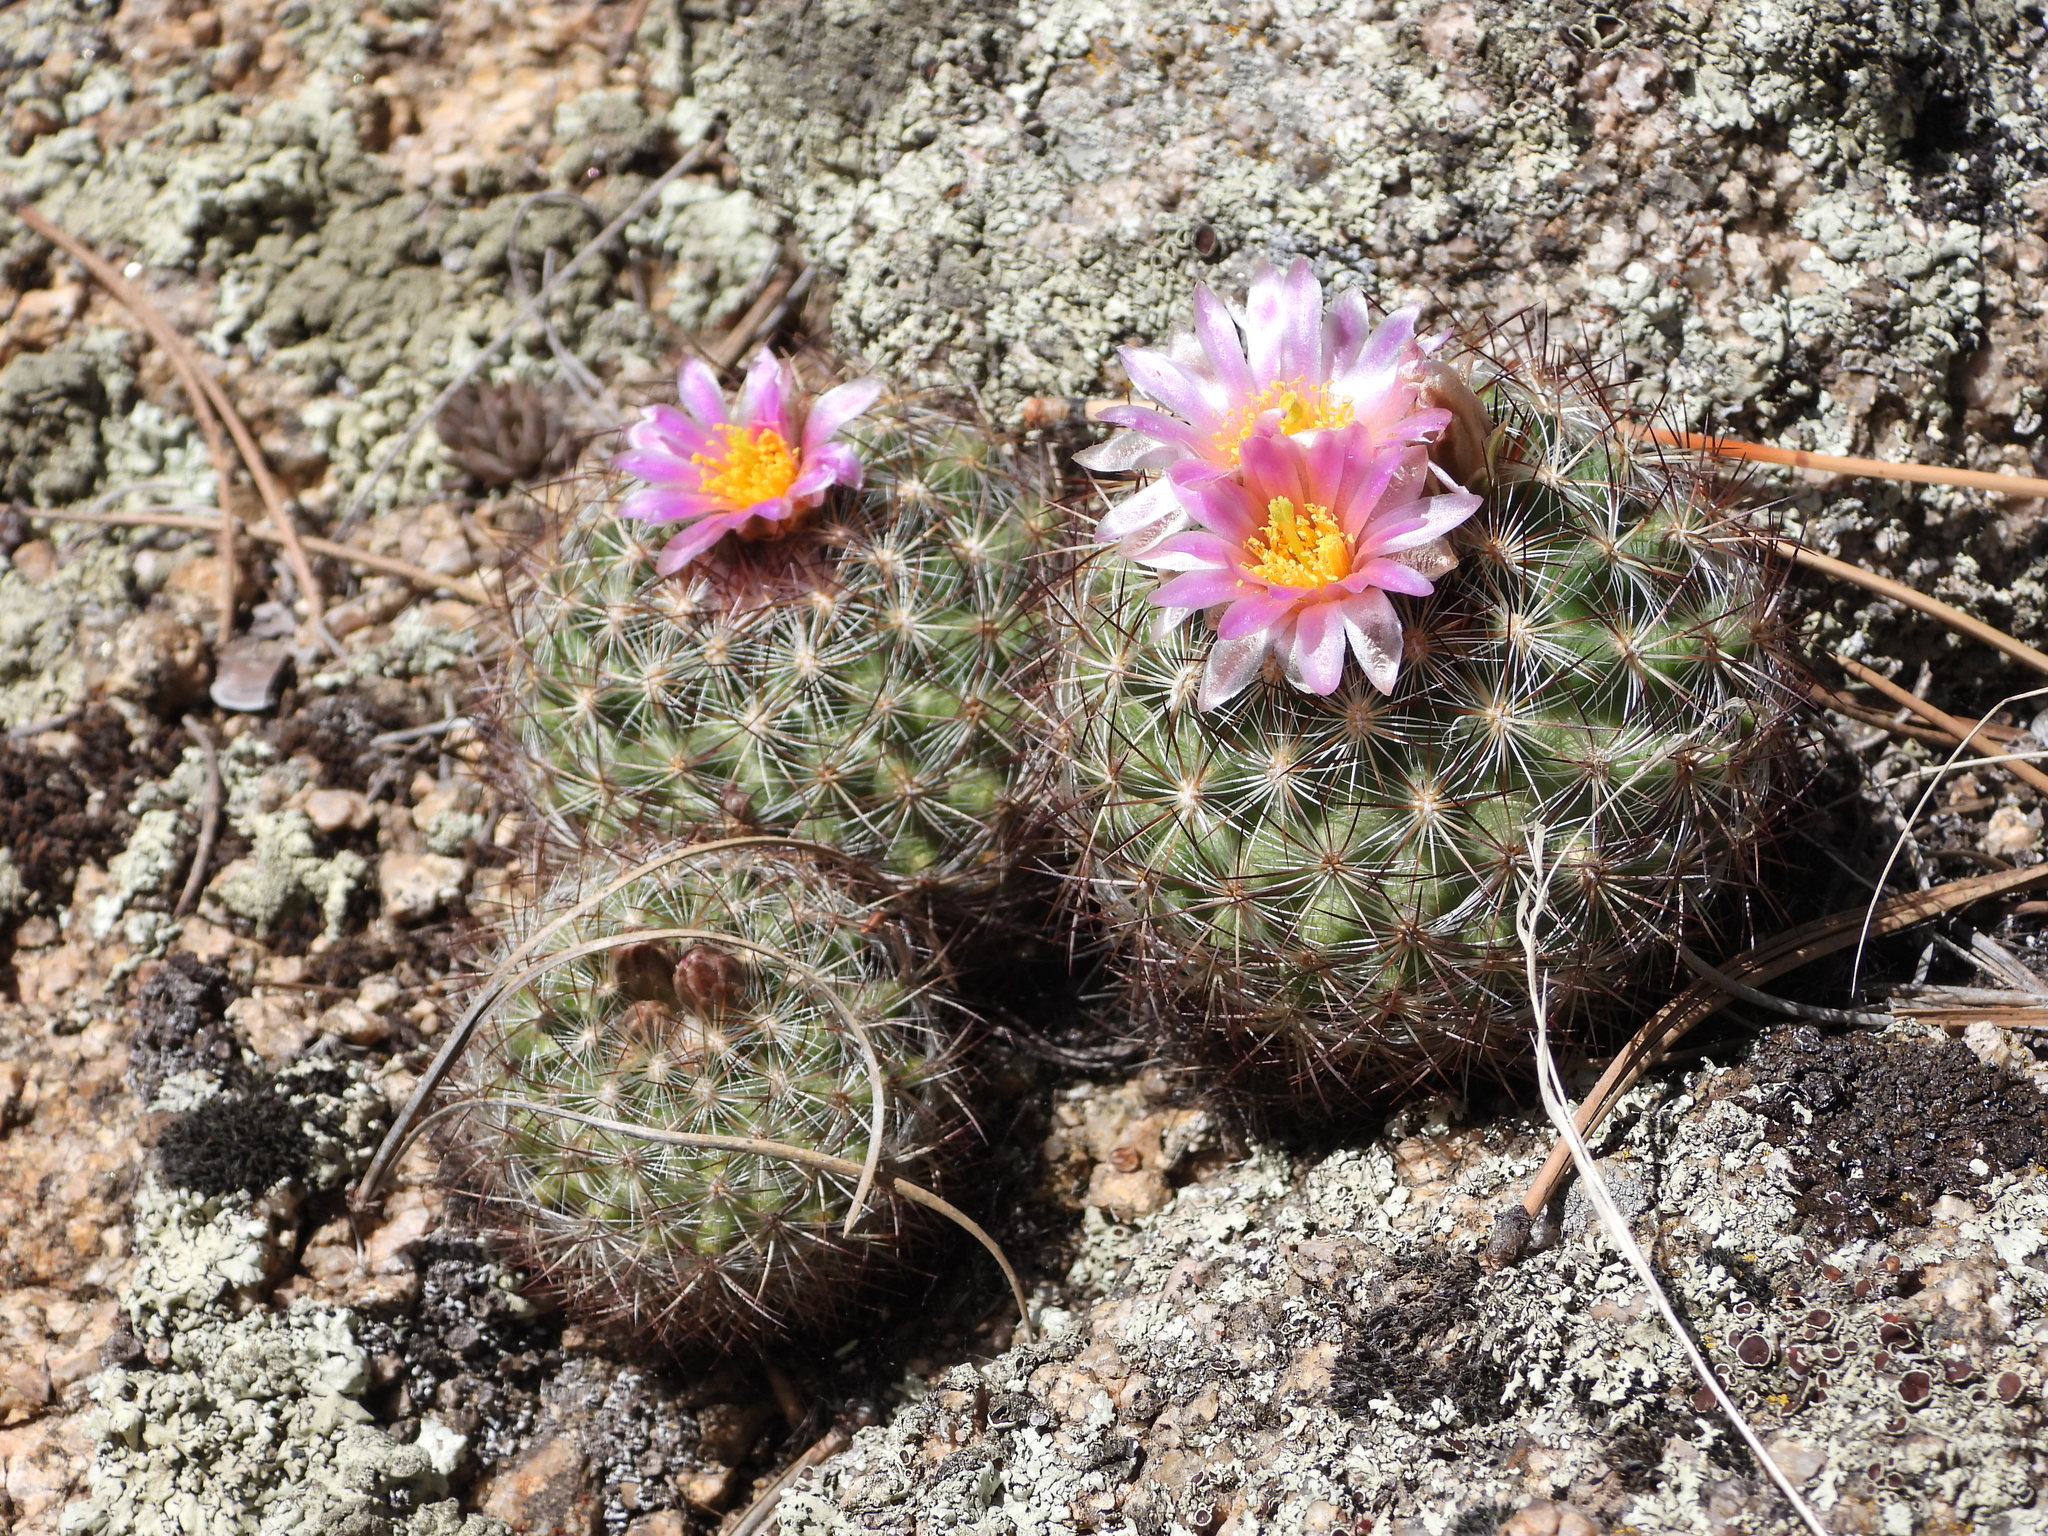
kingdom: Plantae
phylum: Tracheophyta
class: Magnoliopsida
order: Caryophyllales
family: Cactaceae
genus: Pediocactus
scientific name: Pediocactus simpsonii
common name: Simpson's hedgehog cactus
